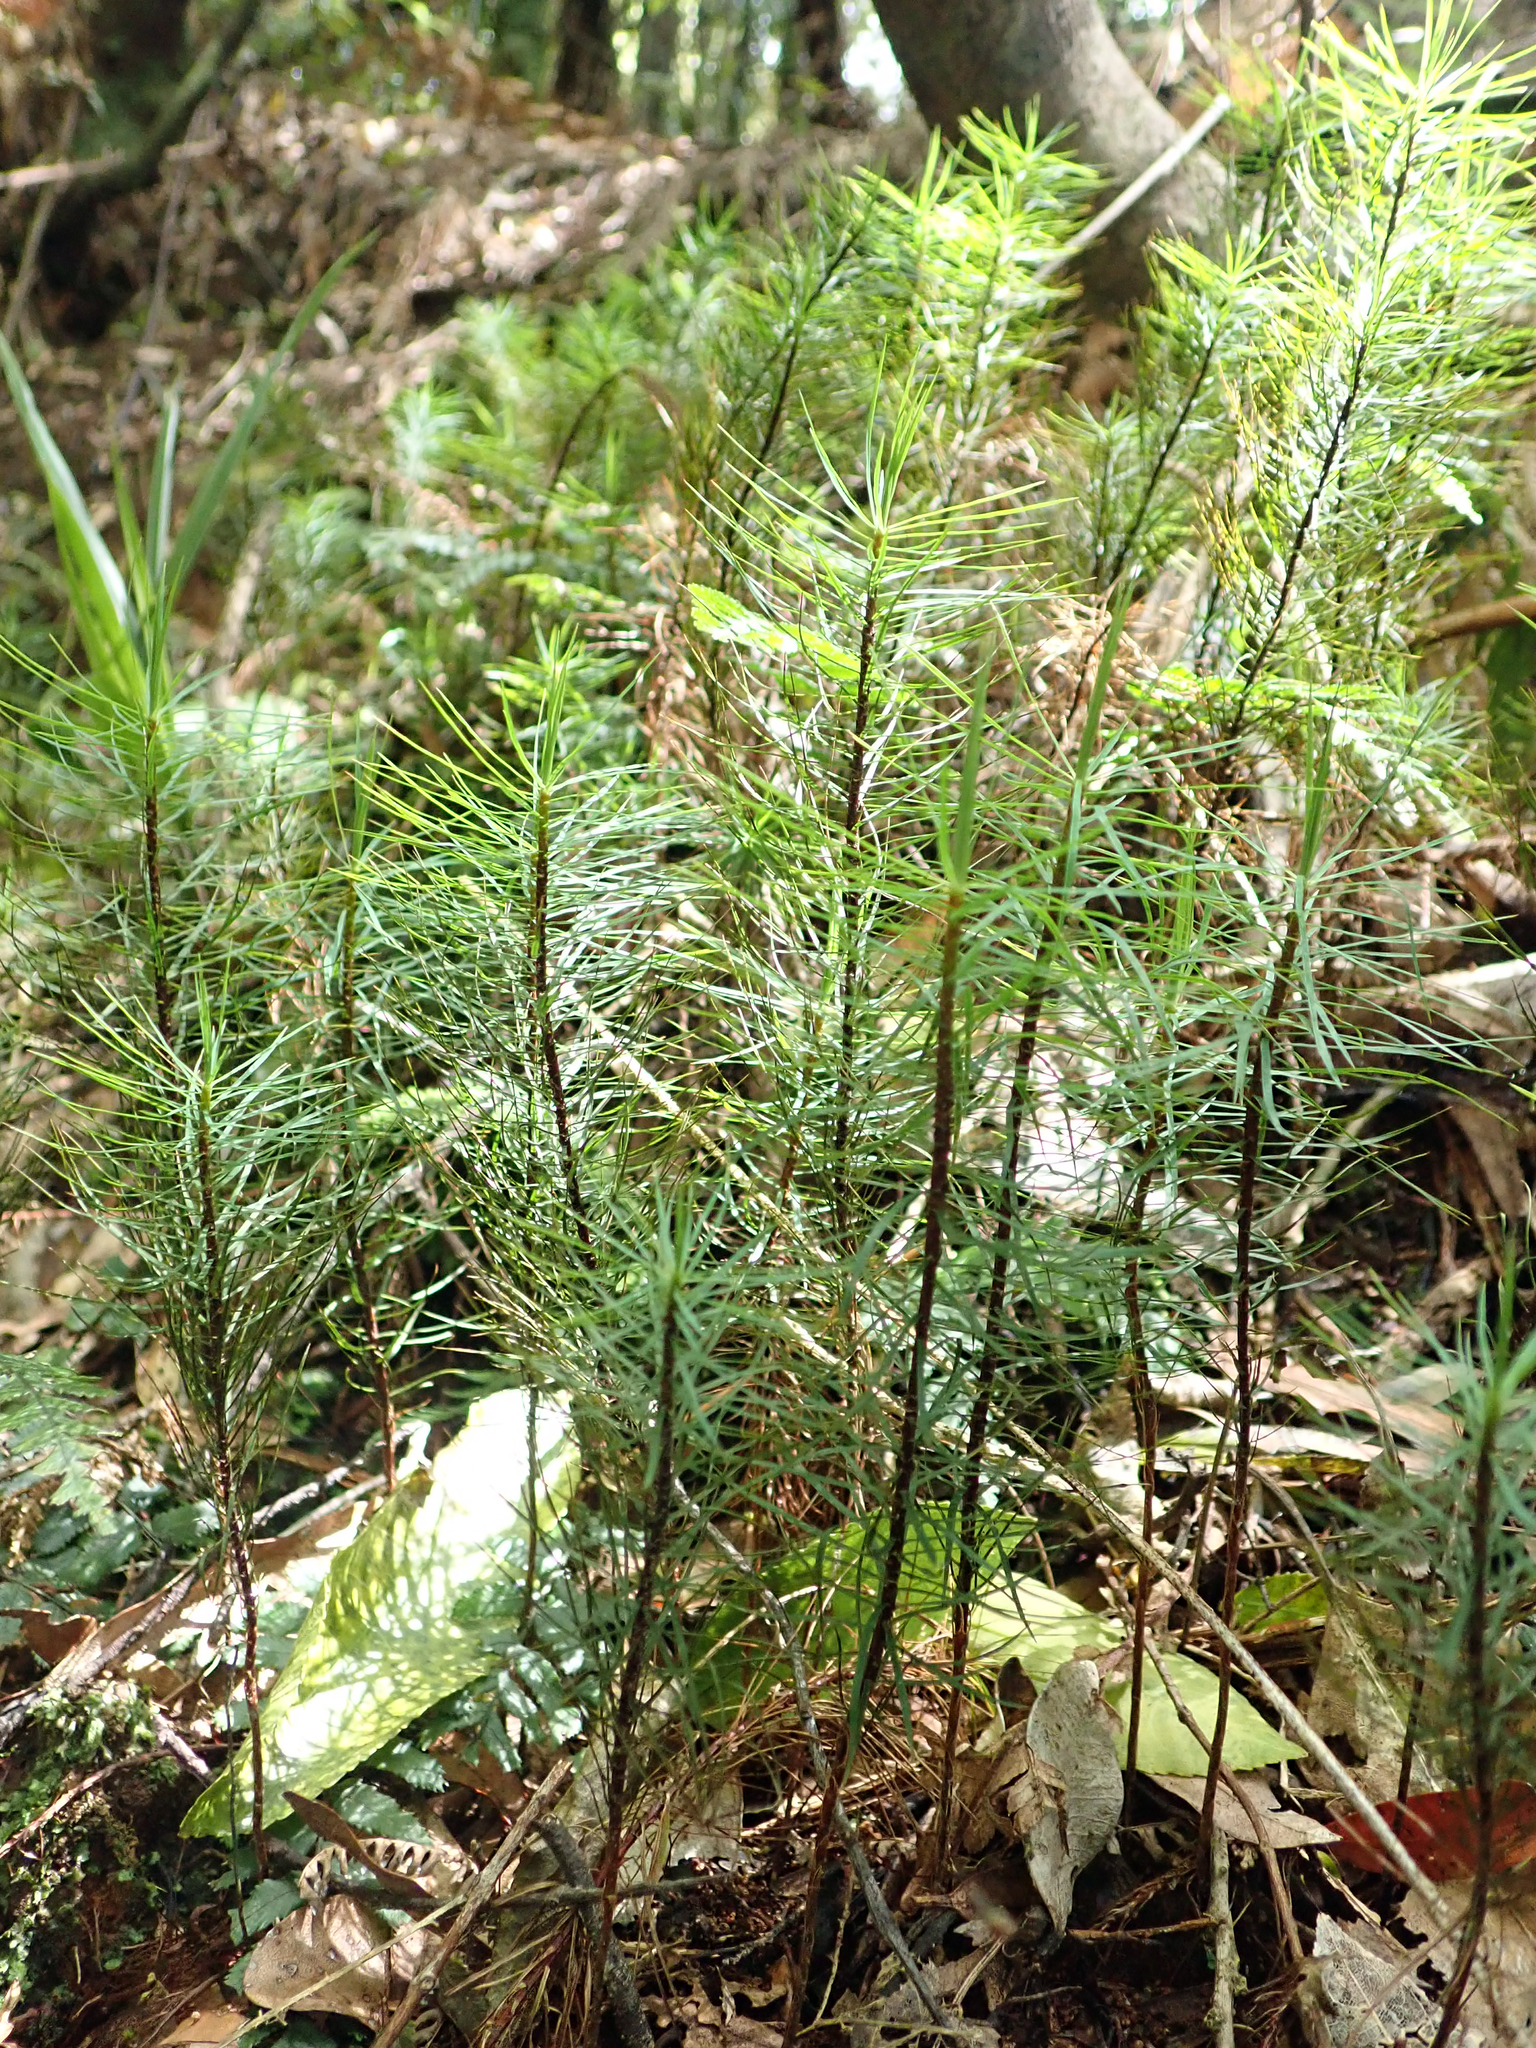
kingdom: Plantae
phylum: Bryophyta
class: Polytrichopsida
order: Polytrichales
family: Polytrichaceae
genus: Dawsonia
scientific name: Dawsonia superba
